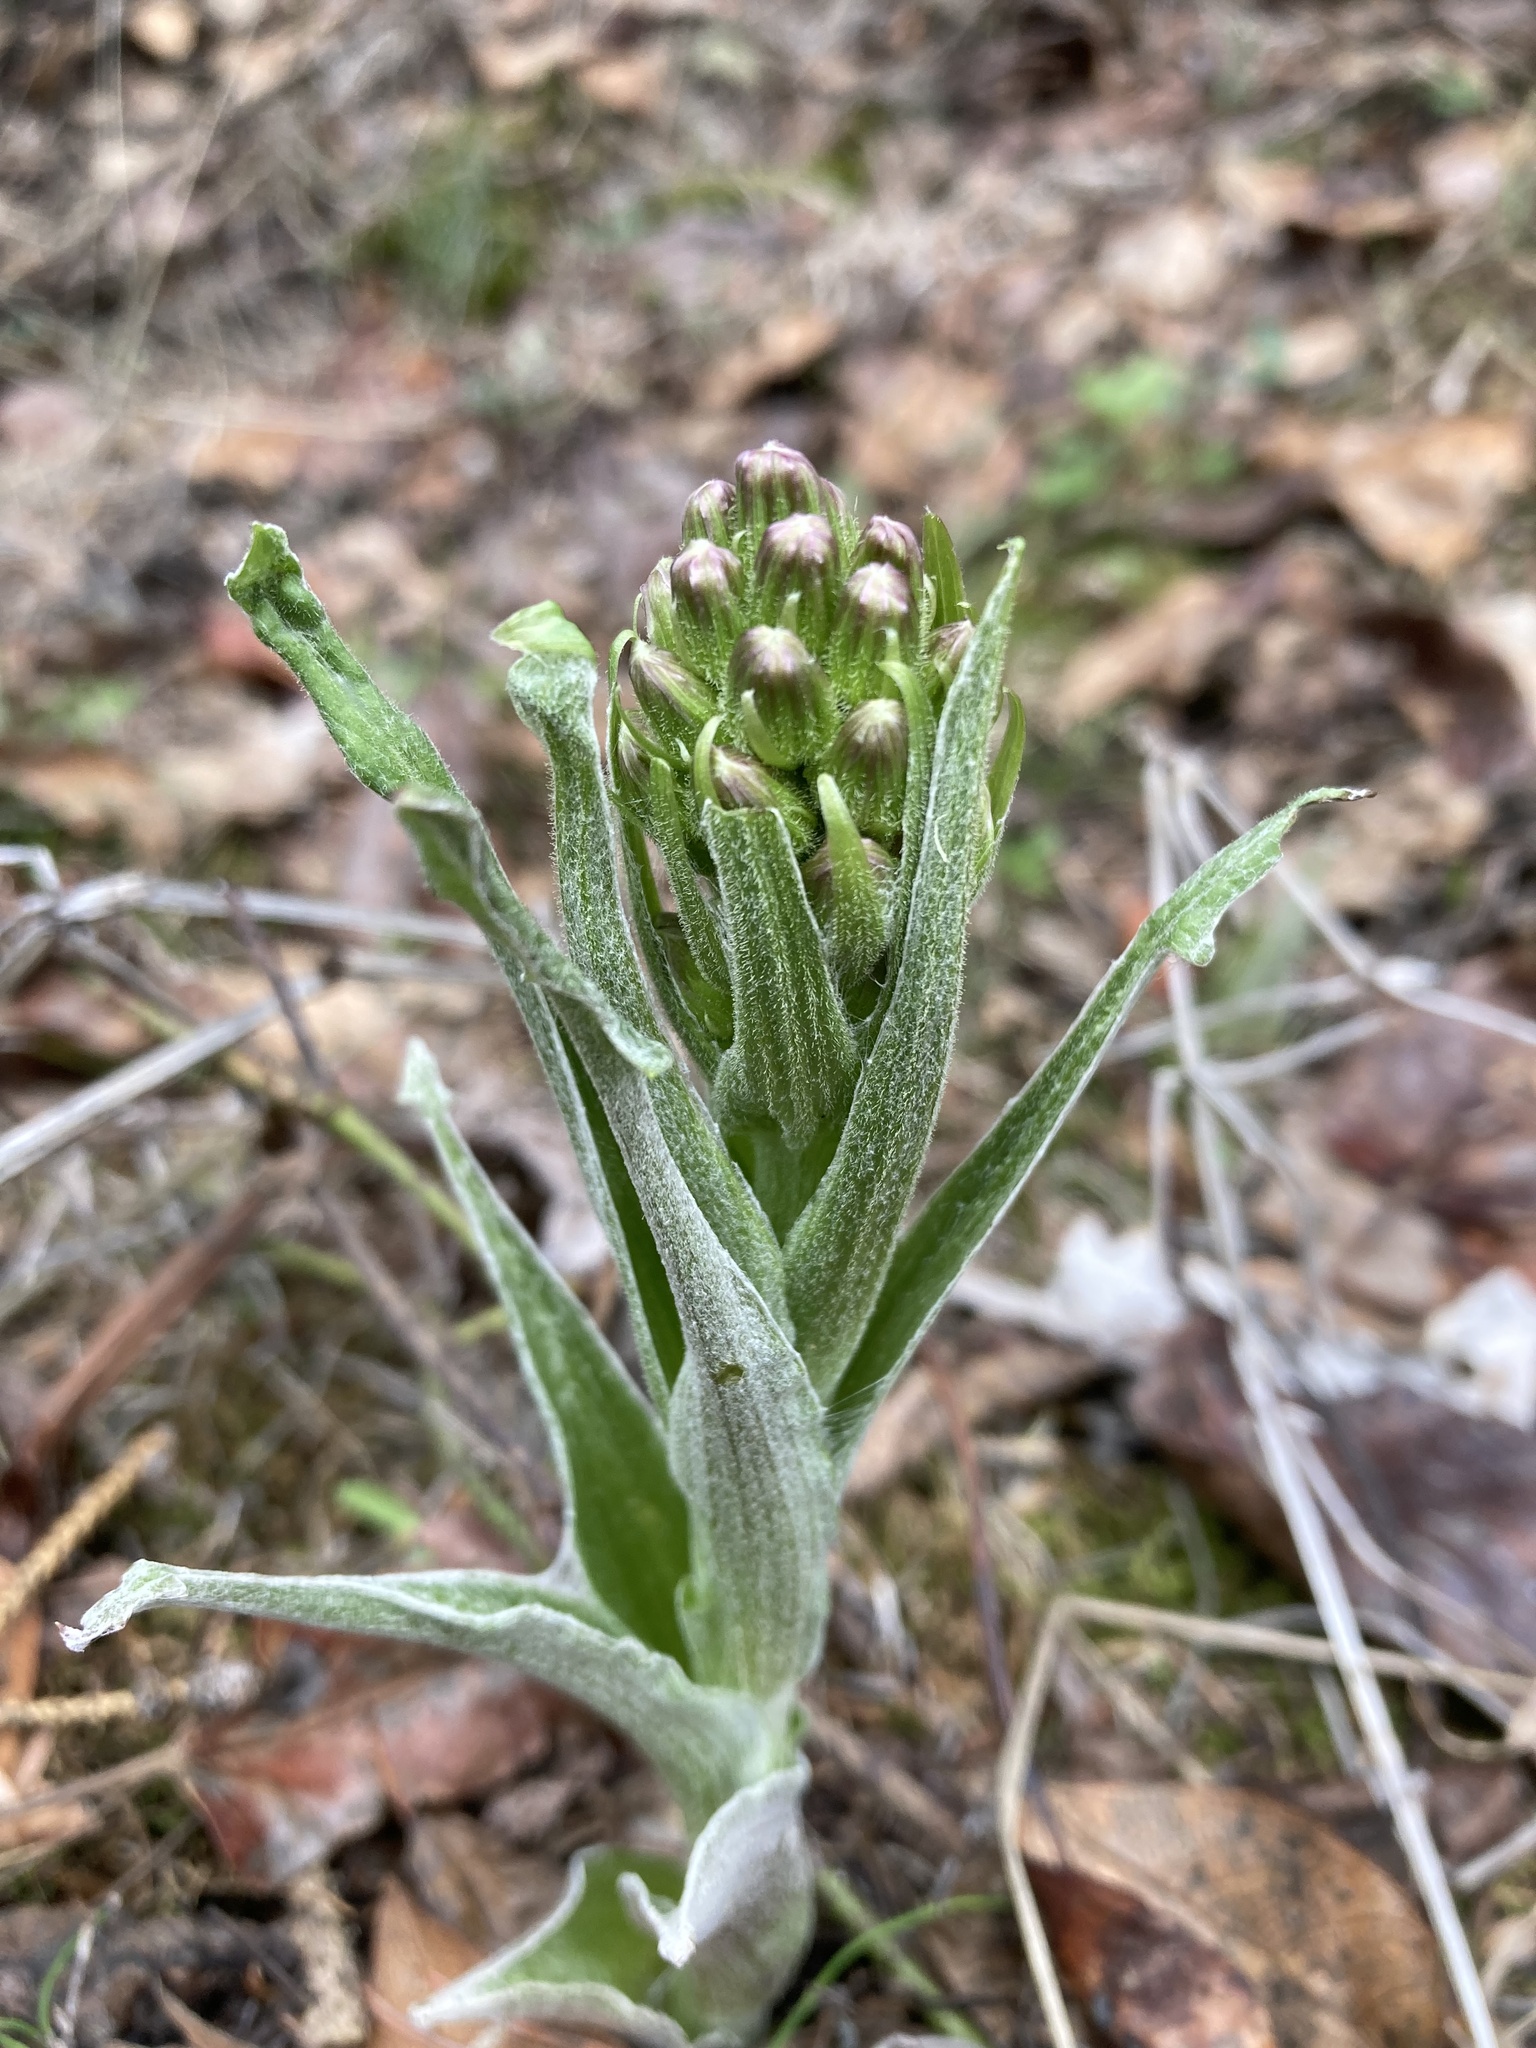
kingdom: Plantae
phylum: Tracheophyta
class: Magnoliopsida
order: Asterales
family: Asteraceae
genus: Petasites
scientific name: Petasites frigidus
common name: Arctic butterbur
